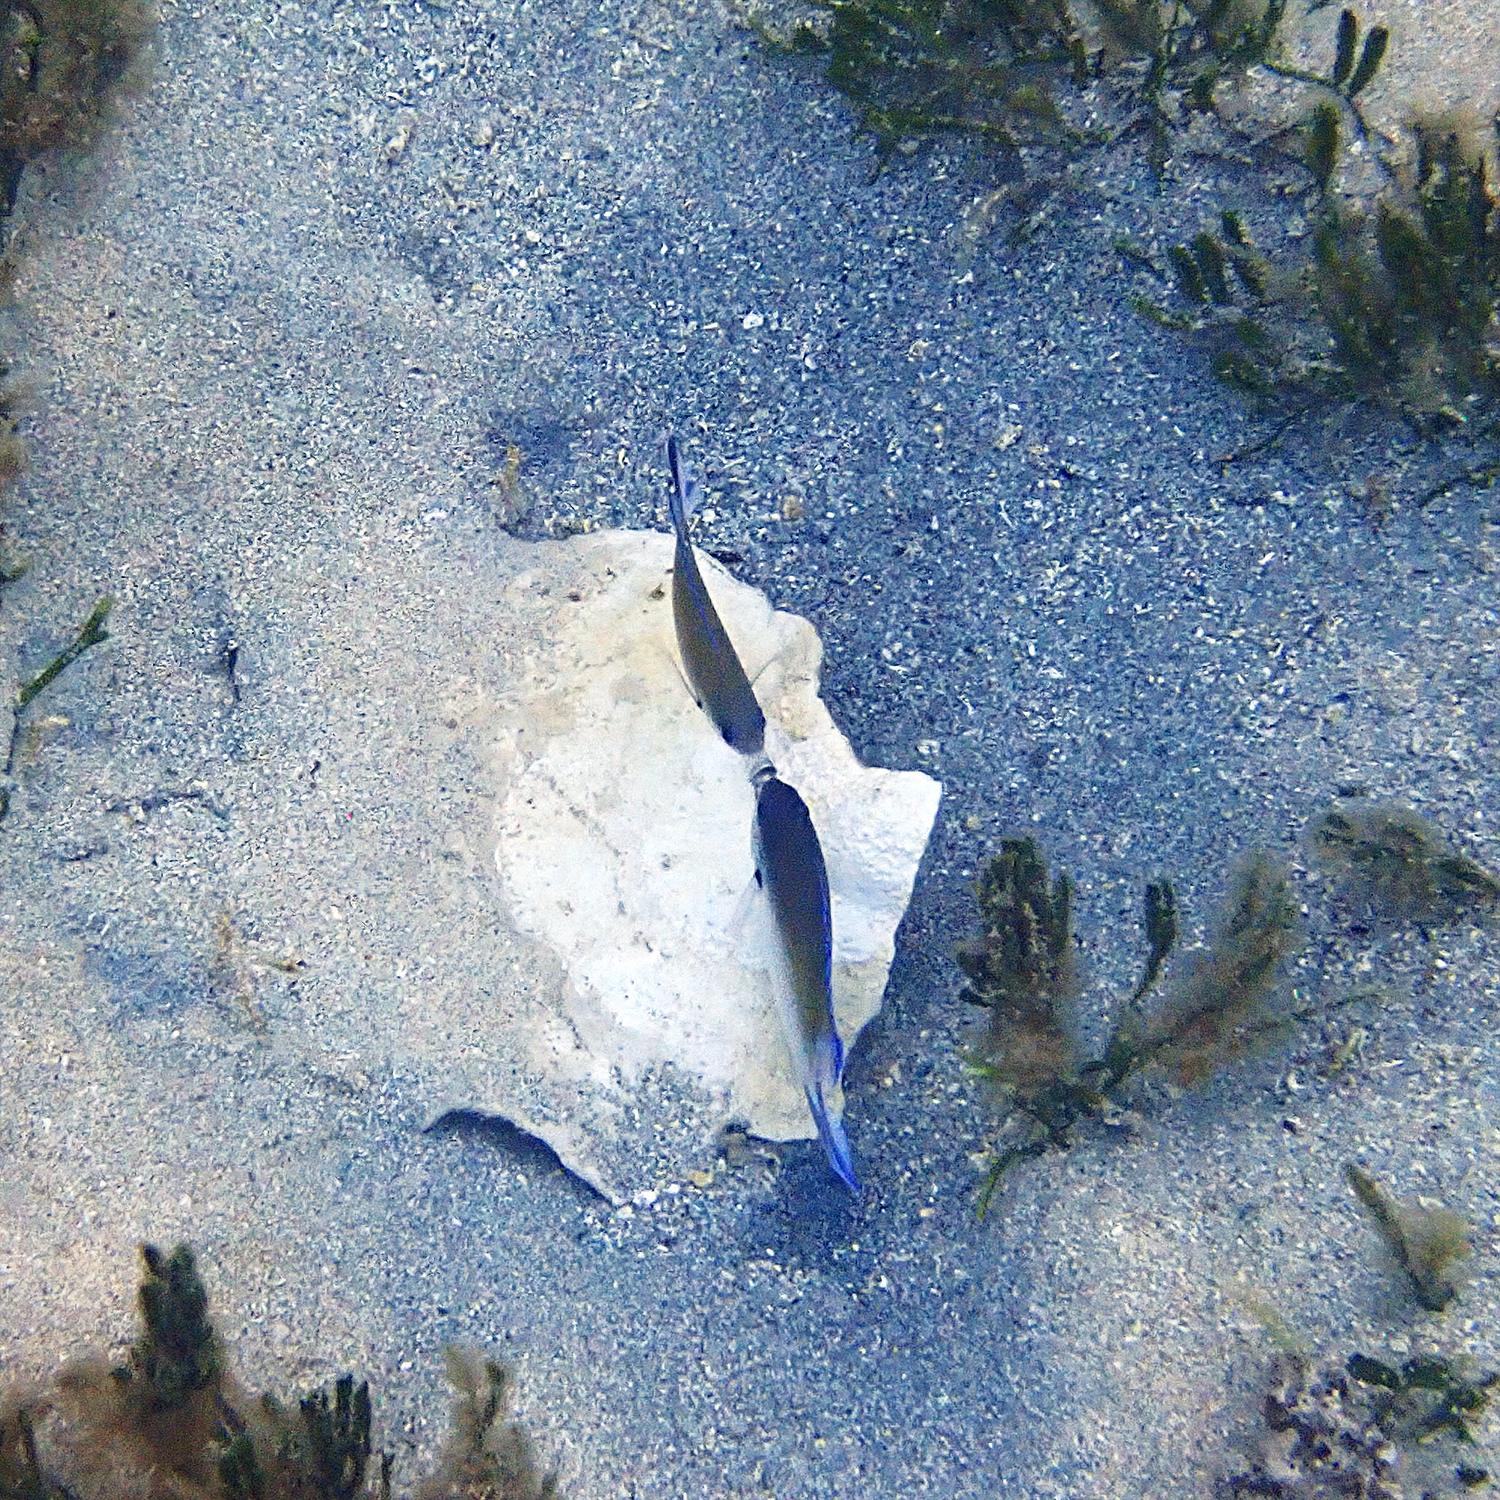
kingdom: Animalia
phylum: Chordata
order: Perciformes
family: Pomacentridae
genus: Chromis
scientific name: Chromis norfolkensis
